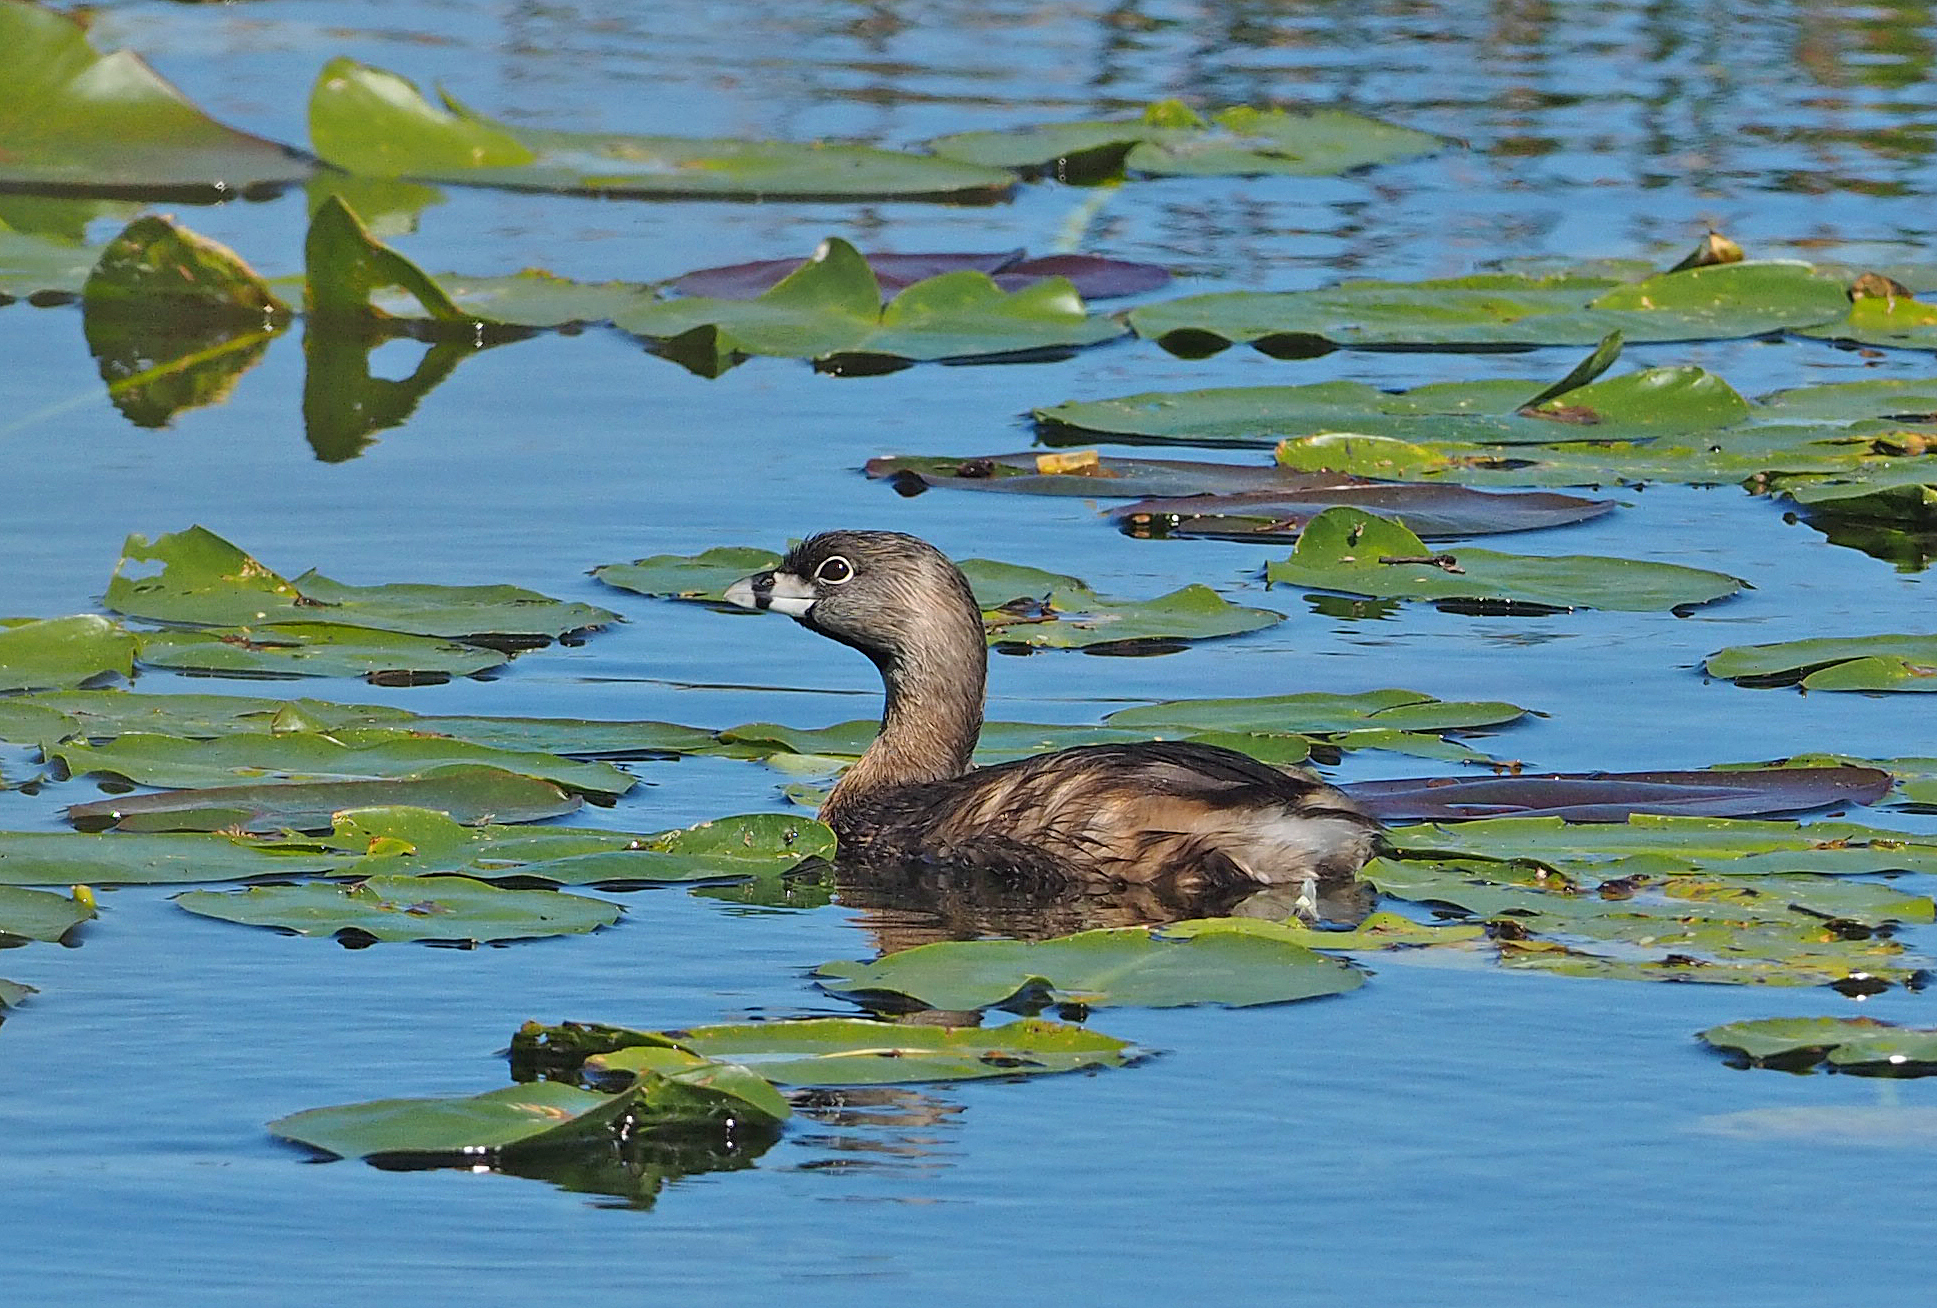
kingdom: Animalia
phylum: Chordata
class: Aves
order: Podicipediformes
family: Podicipedidae
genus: Podilymbus
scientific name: Podilymbus podiceps
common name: Pied-billed grebe
